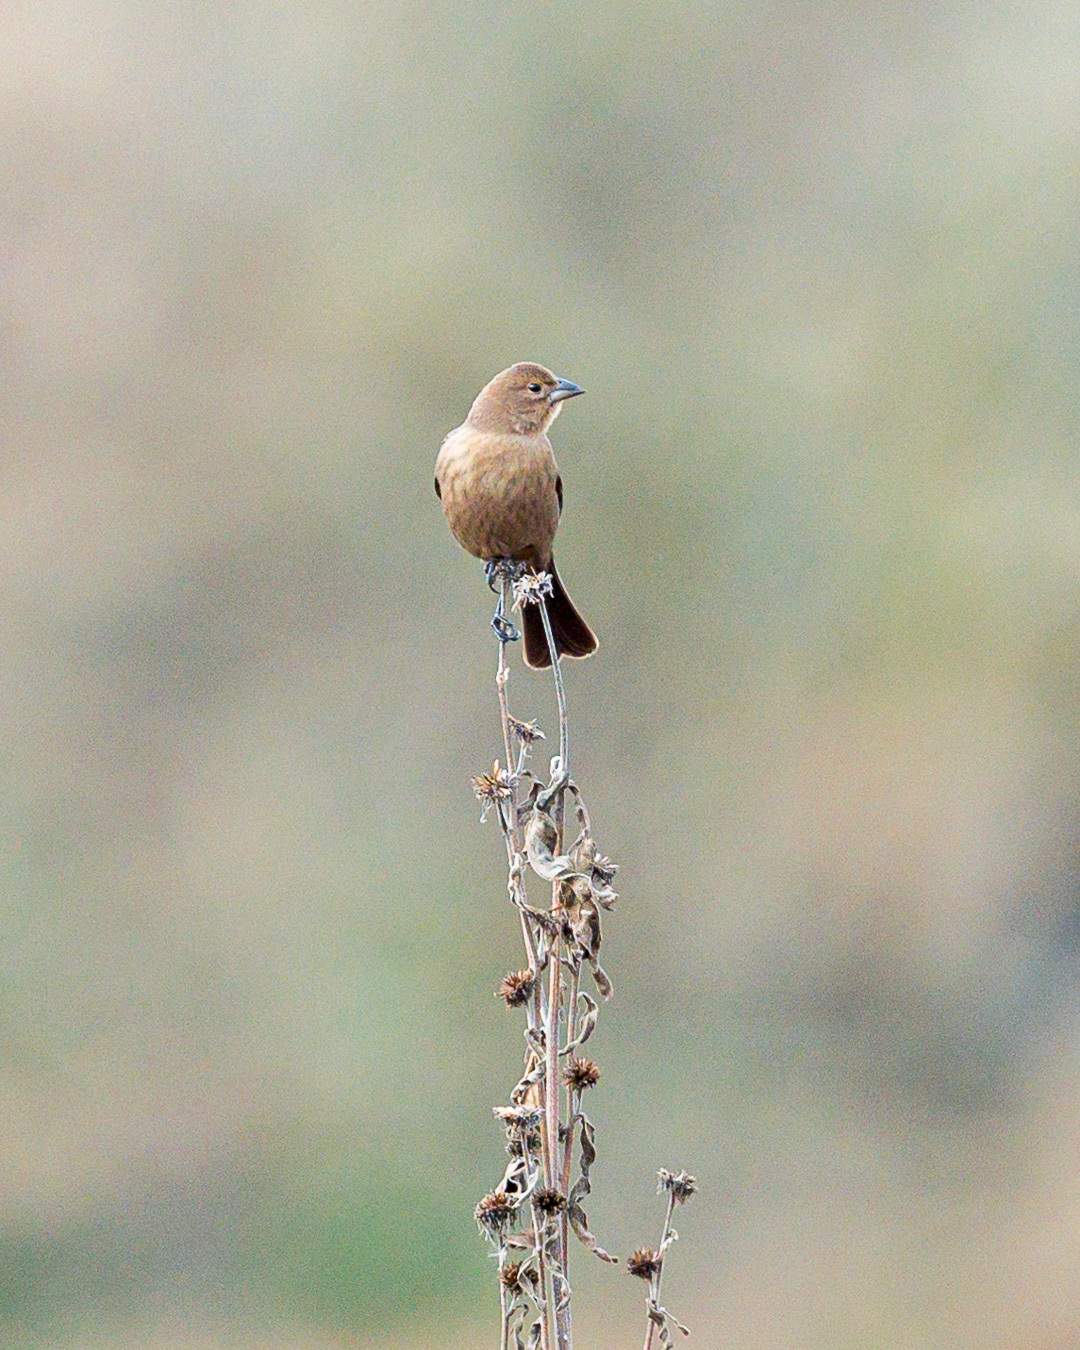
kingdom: Animalia
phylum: Chordata
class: Aves
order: Passeriformes
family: Icteridae
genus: Molothrus
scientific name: Molothrus ater
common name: Brown-headed cowbird
